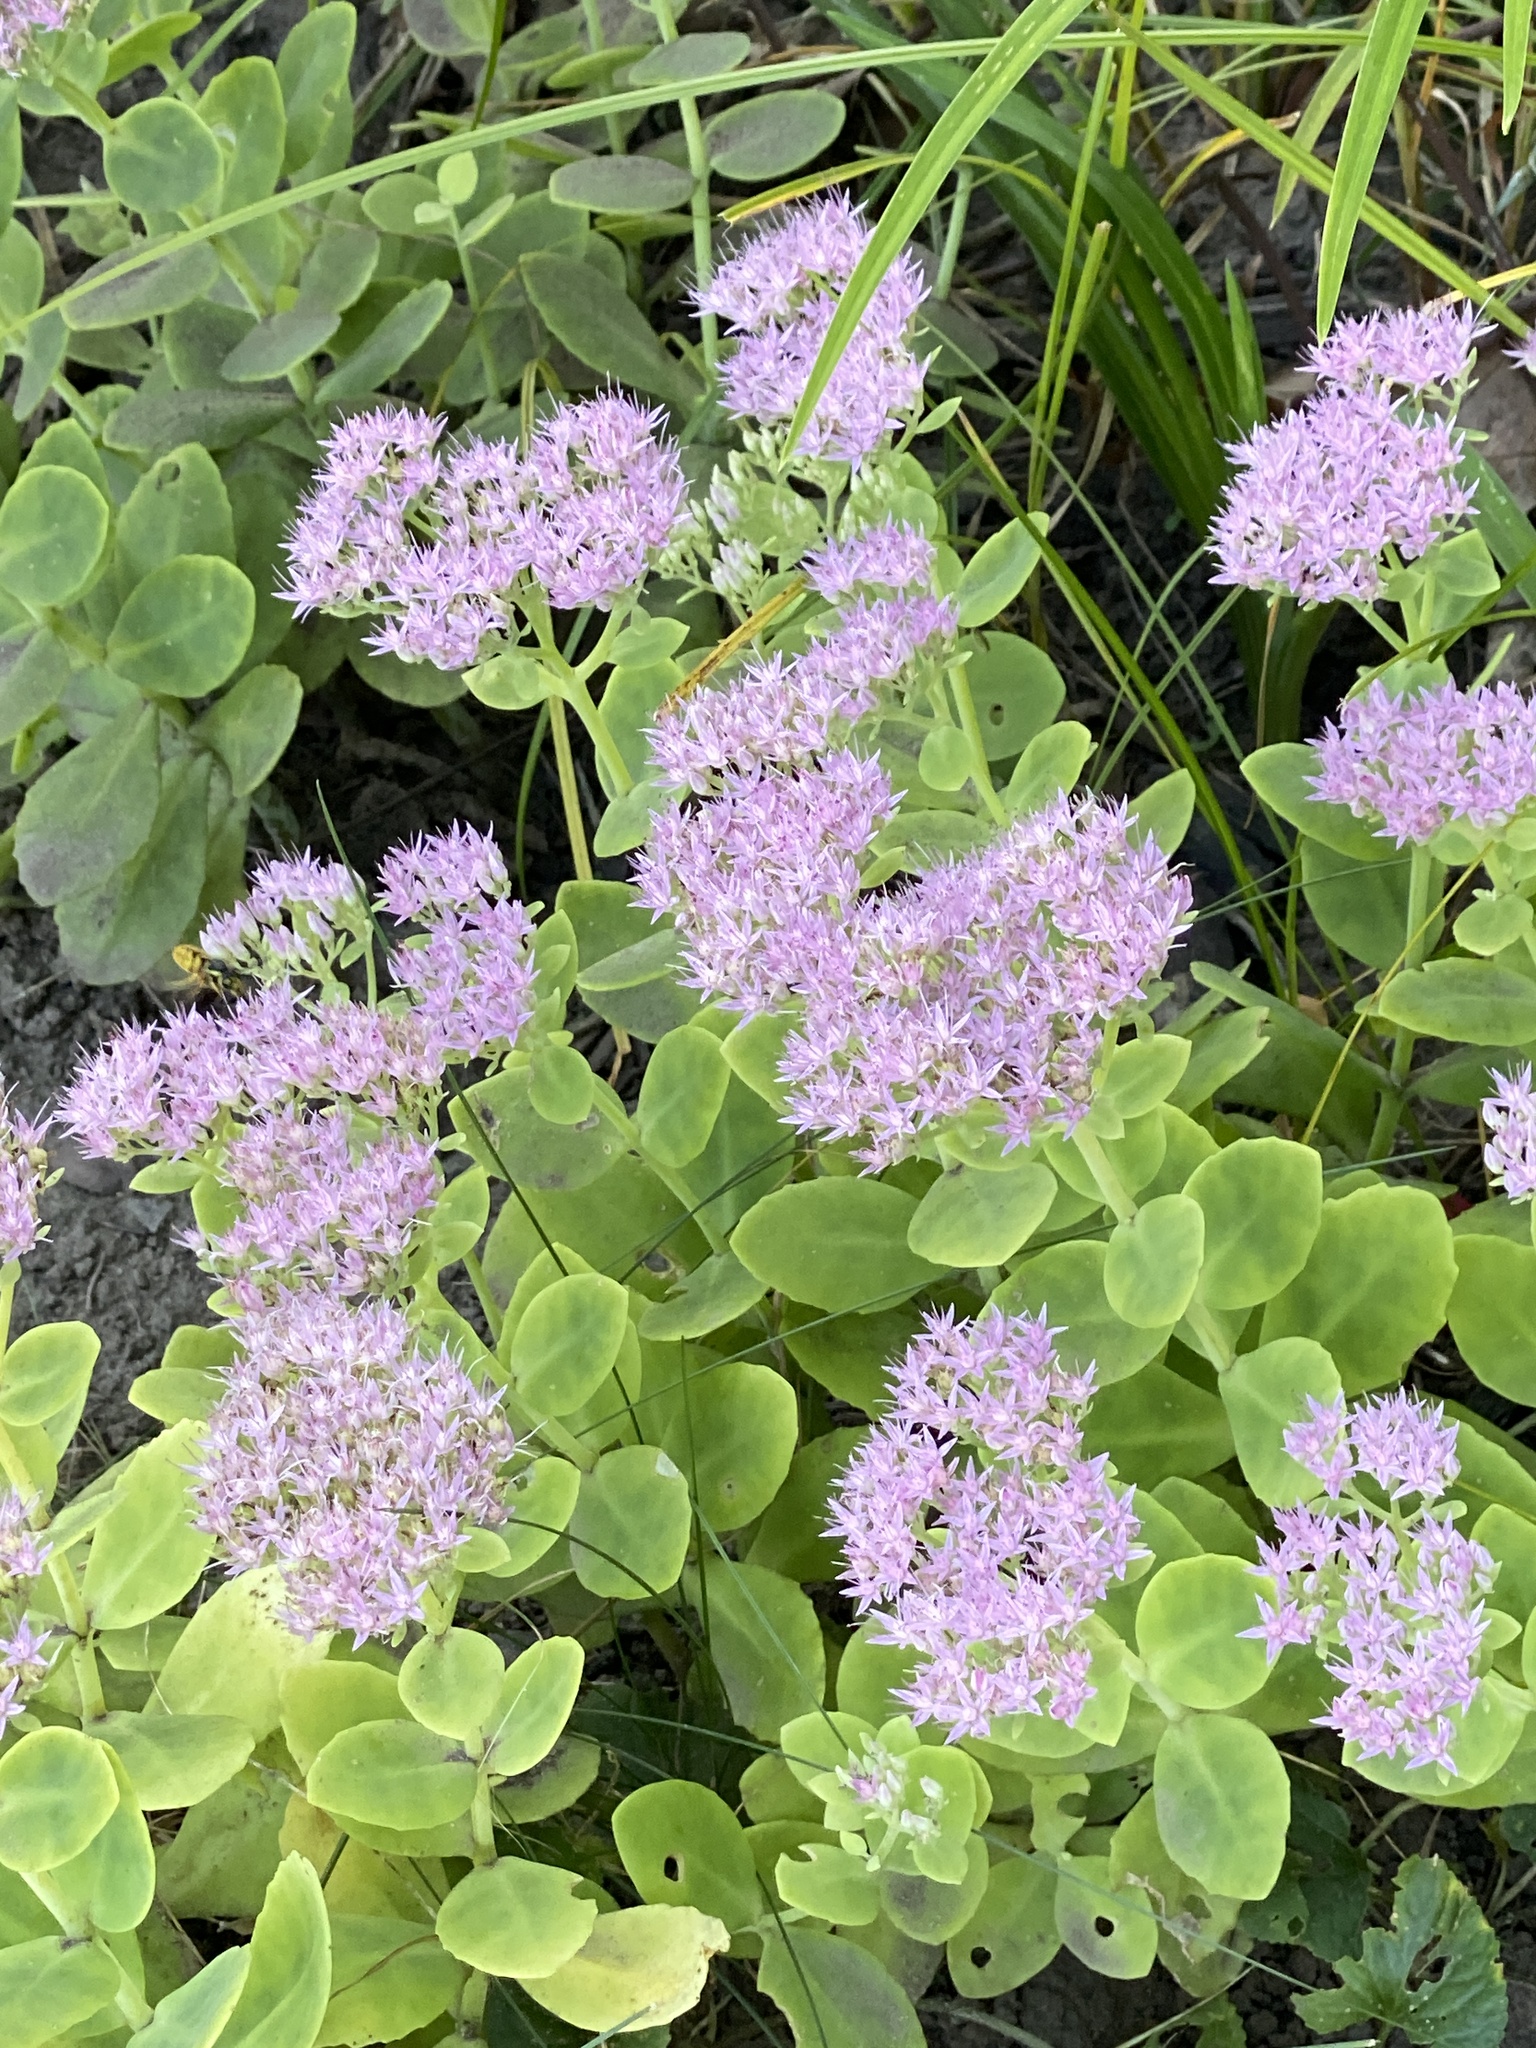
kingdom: Plantae
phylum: Tracheophyta
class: Magnoliopsida
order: Saxifragales
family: Crassulaceae
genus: Hylotelephium
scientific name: Hylotelephium spectabile
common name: Showy stonecrop
